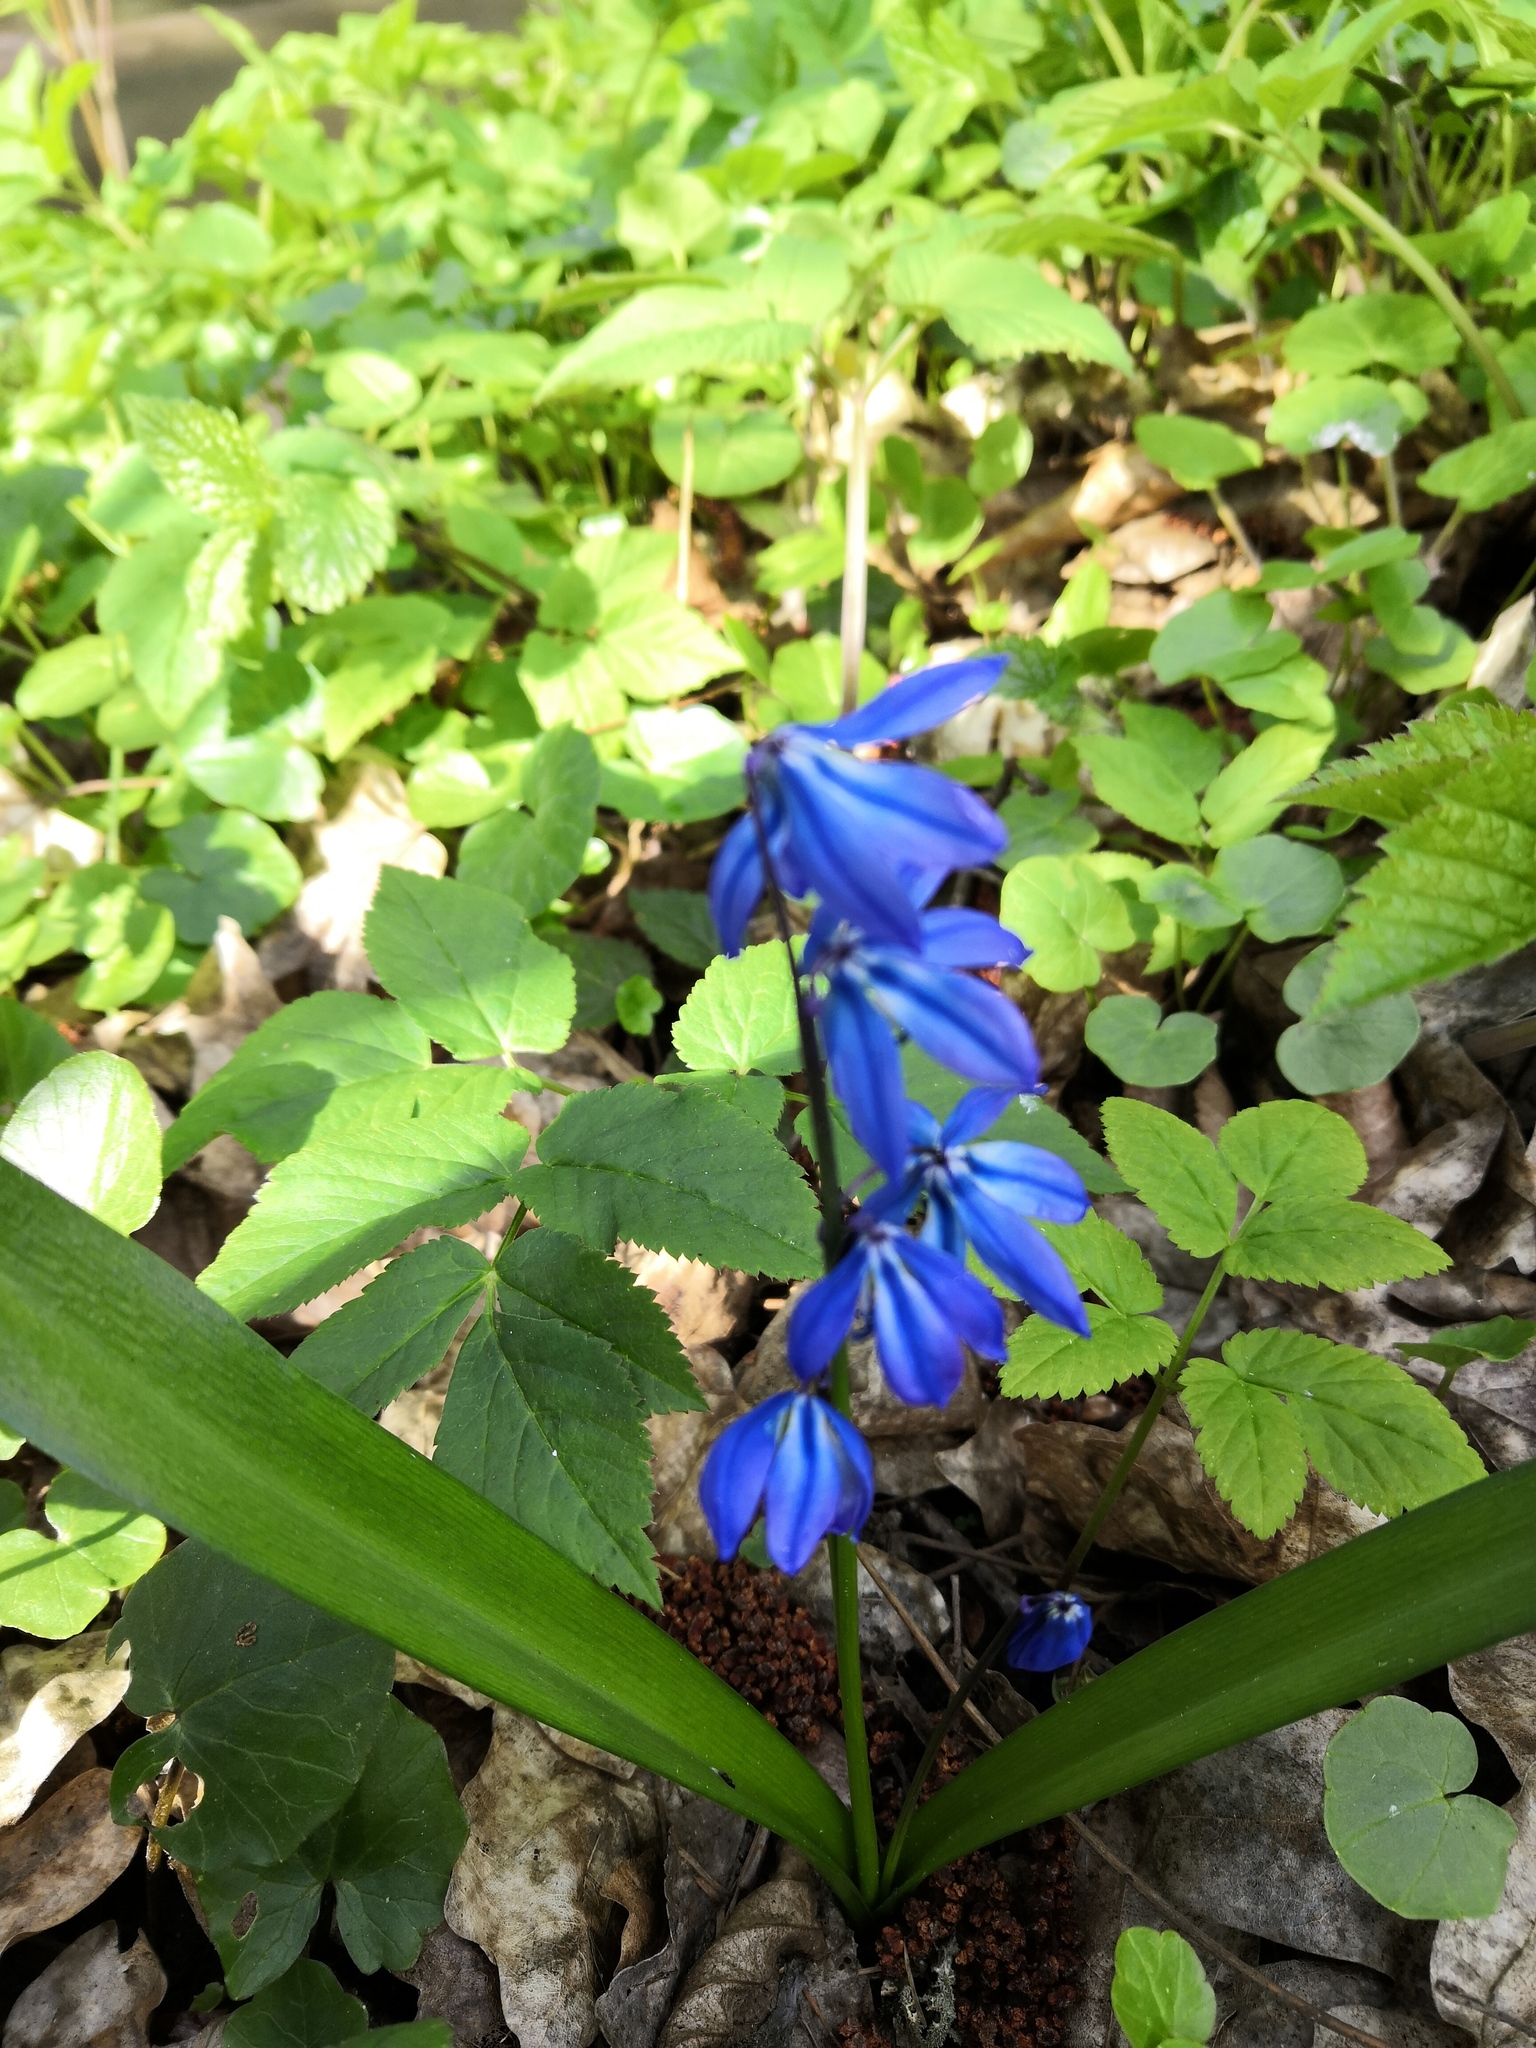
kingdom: Plantae
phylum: Tracheophyta
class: Liliopsida
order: Asparagales
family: Asparagaceae
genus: Scilla
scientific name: Scilla siberica
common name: Siberian squill
